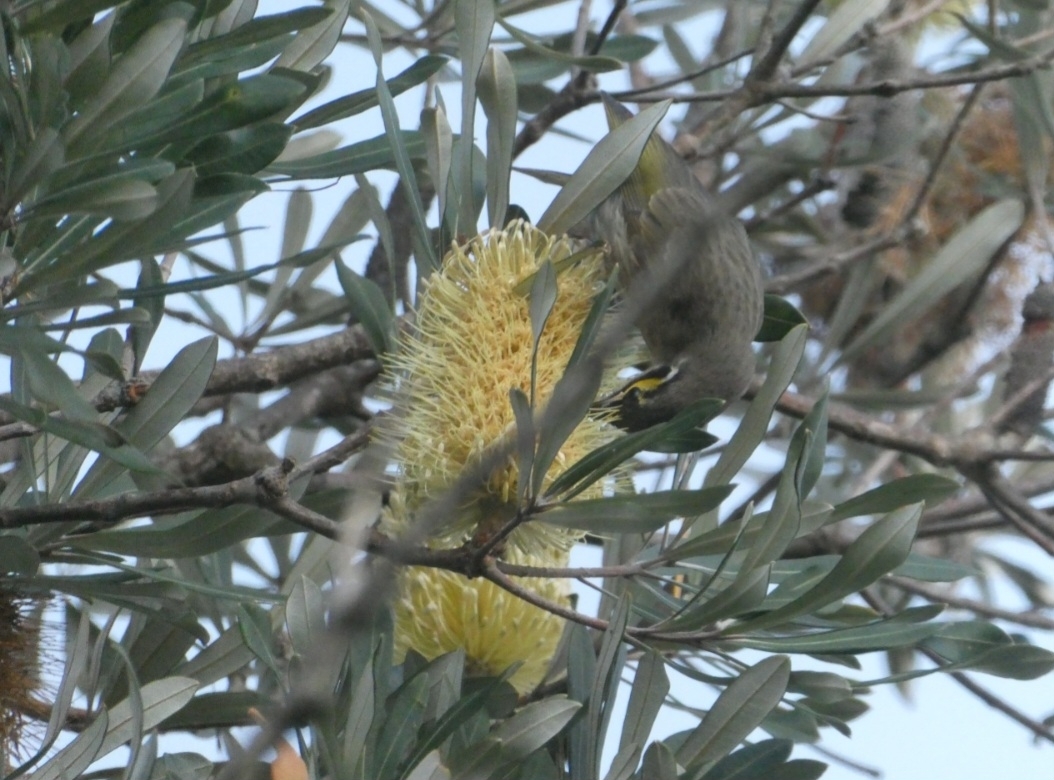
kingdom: Animalia
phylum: Chordata
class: Aves
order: Passeriformes
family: Meliphagidae
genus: Caligavis
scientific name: Caligavis chrysops
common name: Yellow-faced honeyeater
